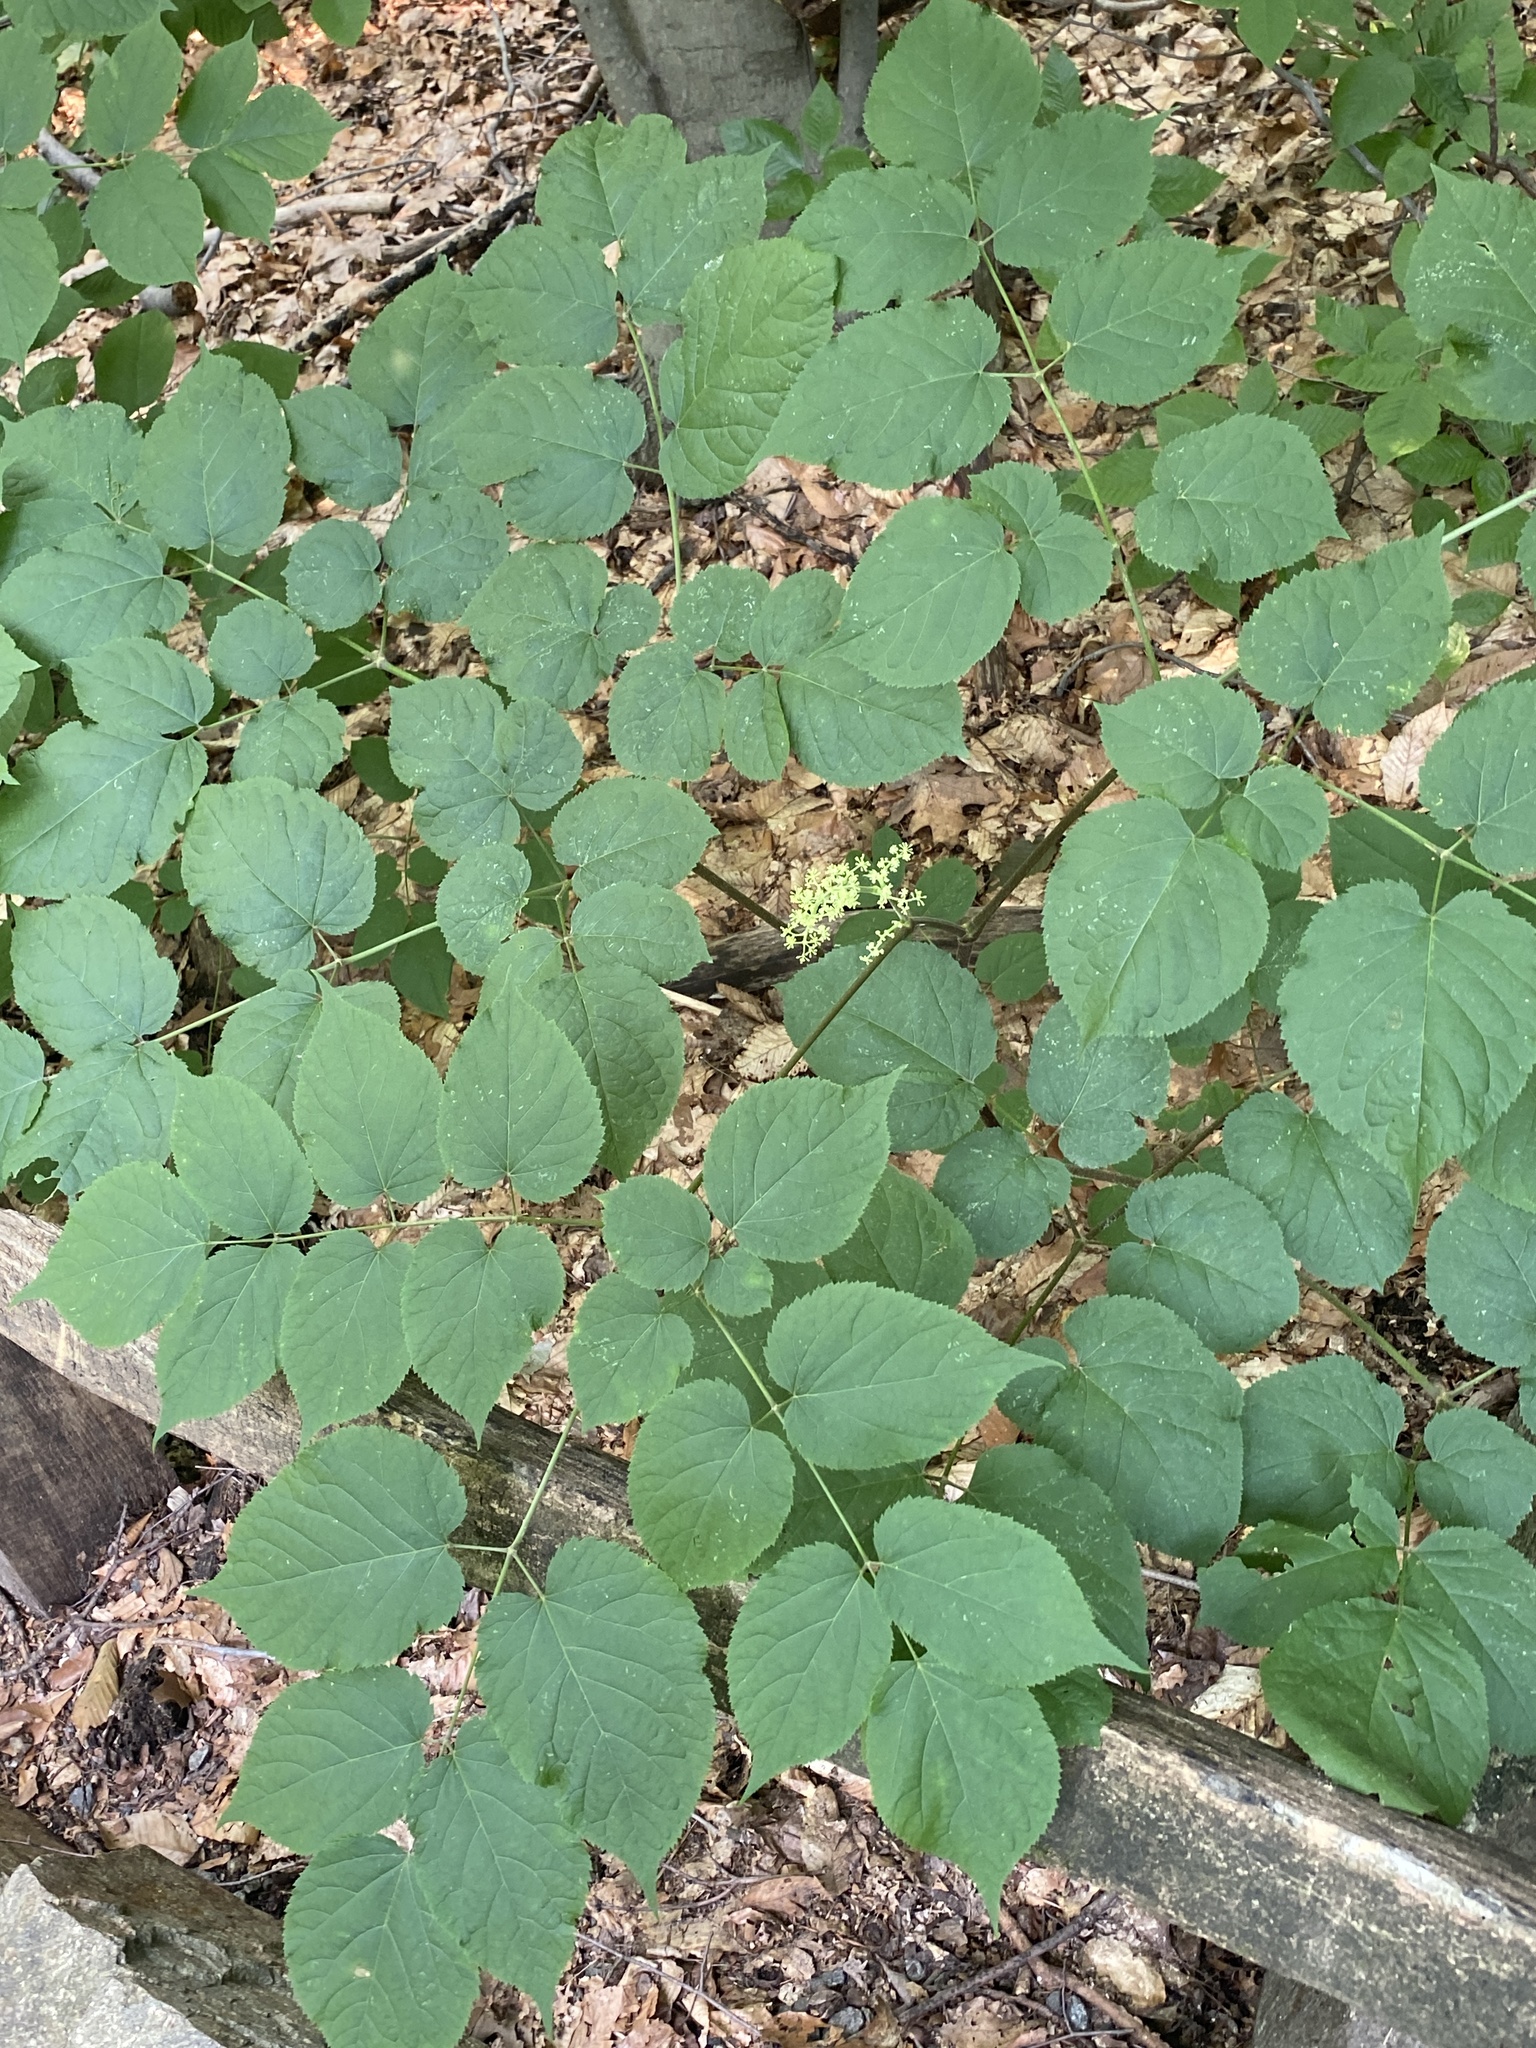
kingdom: Plantae
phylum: Tracheophyta
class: Magnoliopsida
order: Apiales
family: Araliaceae
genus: Aralia
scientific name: Aralia racemosa
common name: American-spikenard
